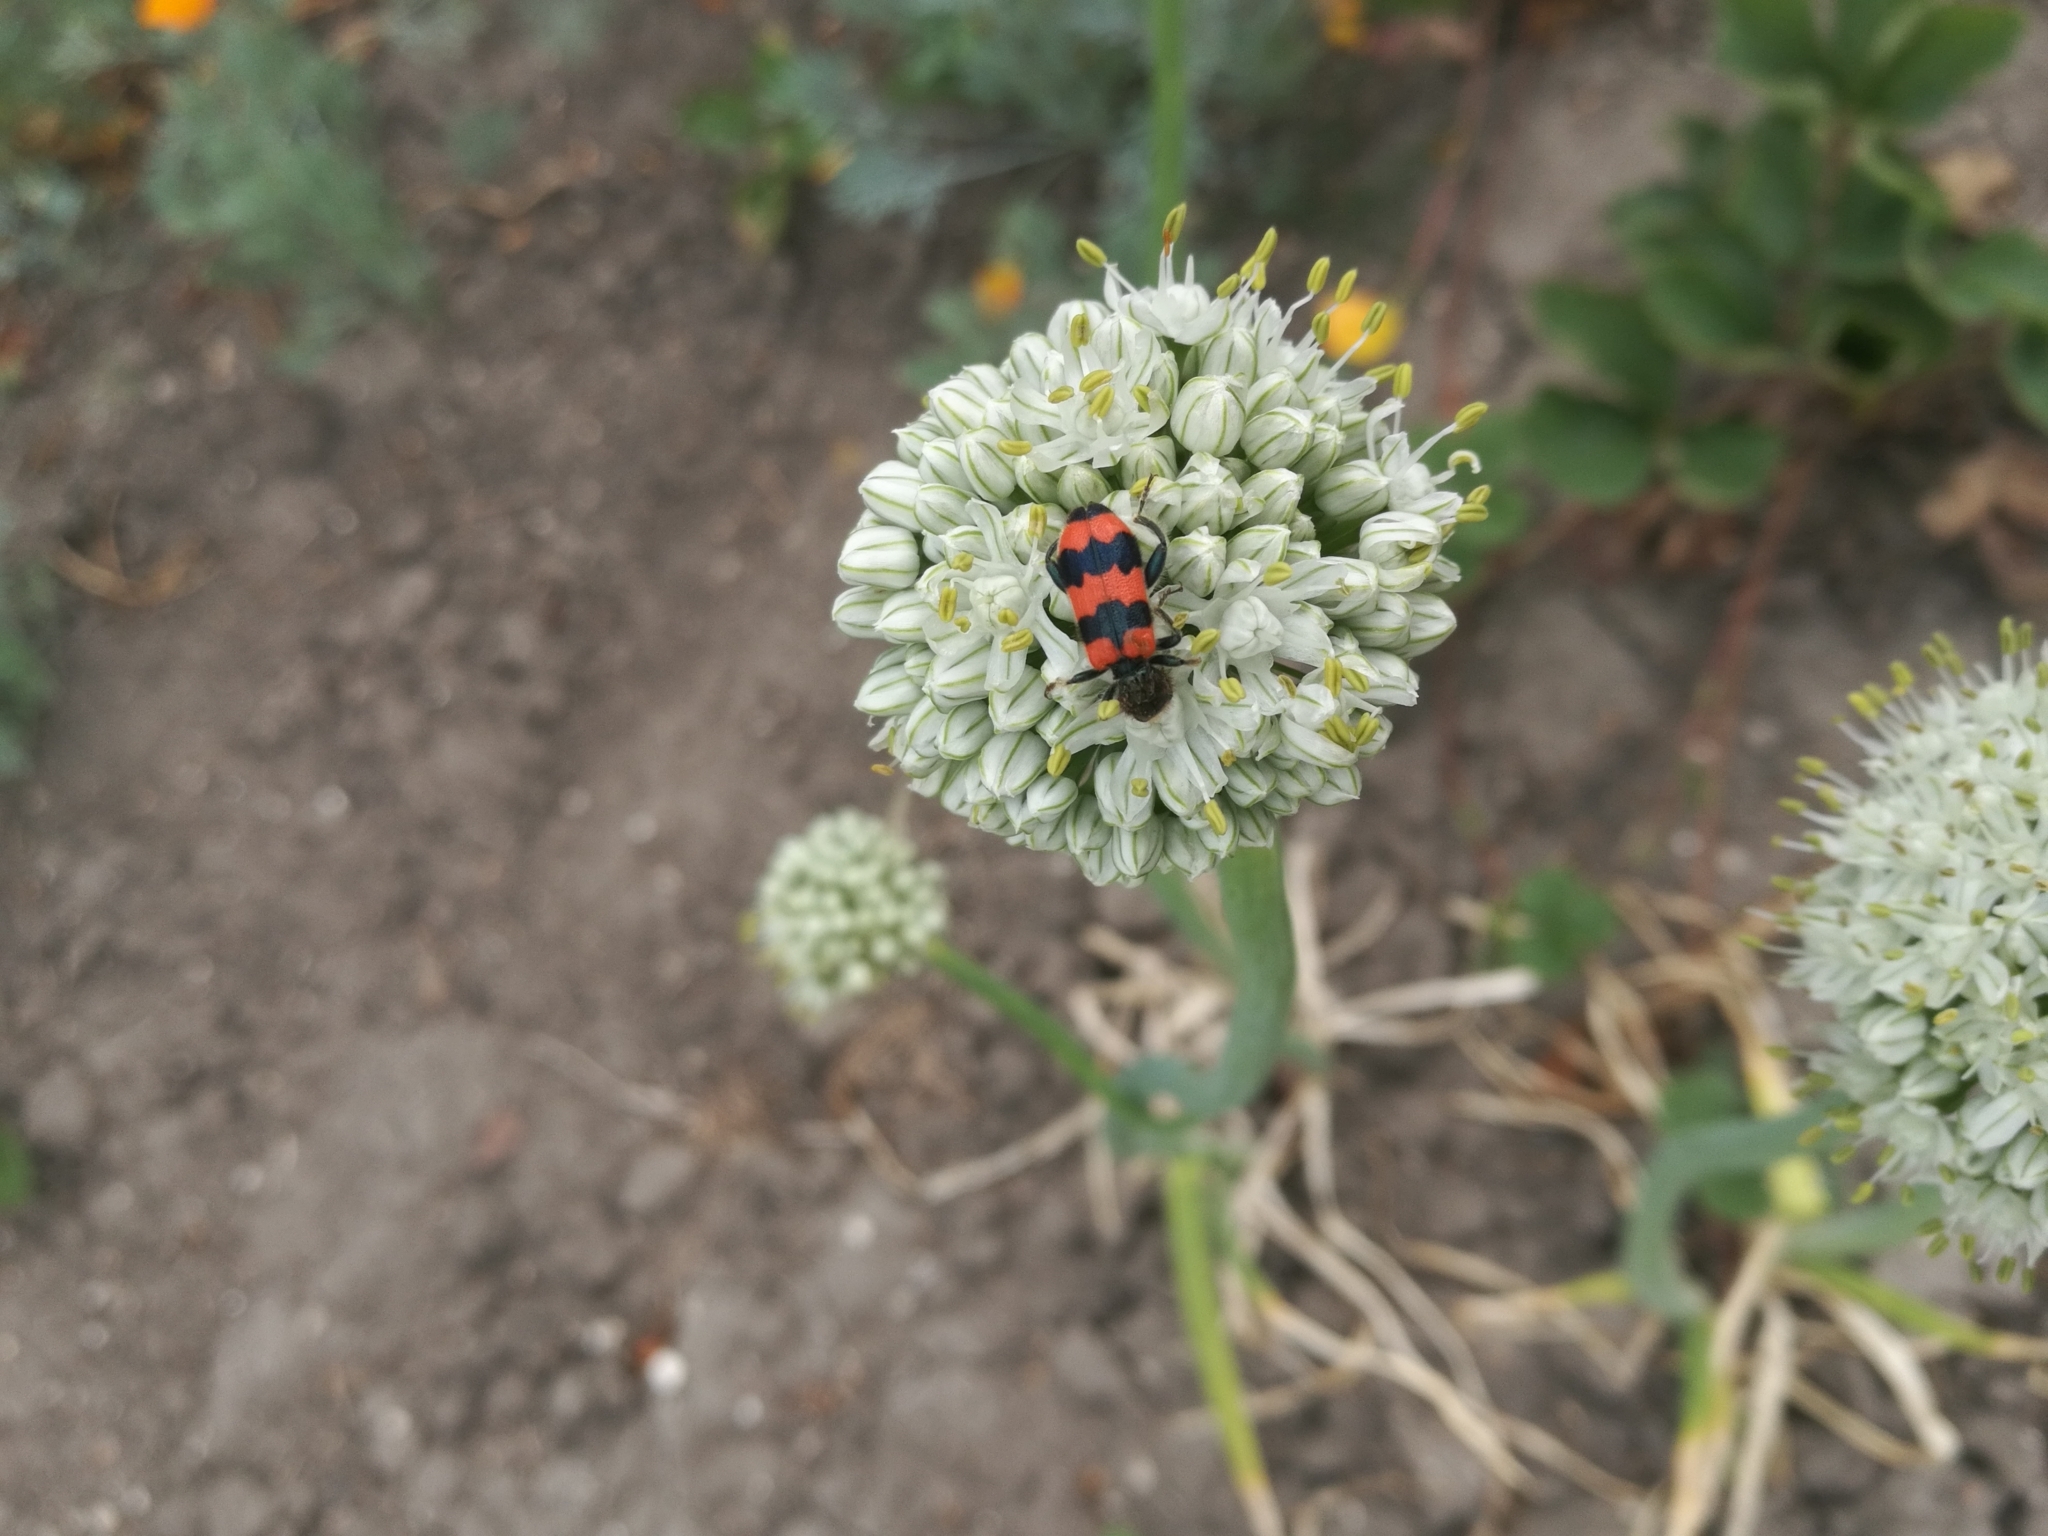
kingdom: Animalia
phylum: Arthropoda
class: Insecta
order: Coleoptera
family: Cleridae
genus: Trichodes
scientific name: Trichodes apiarius
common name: Bee-eating beetle
